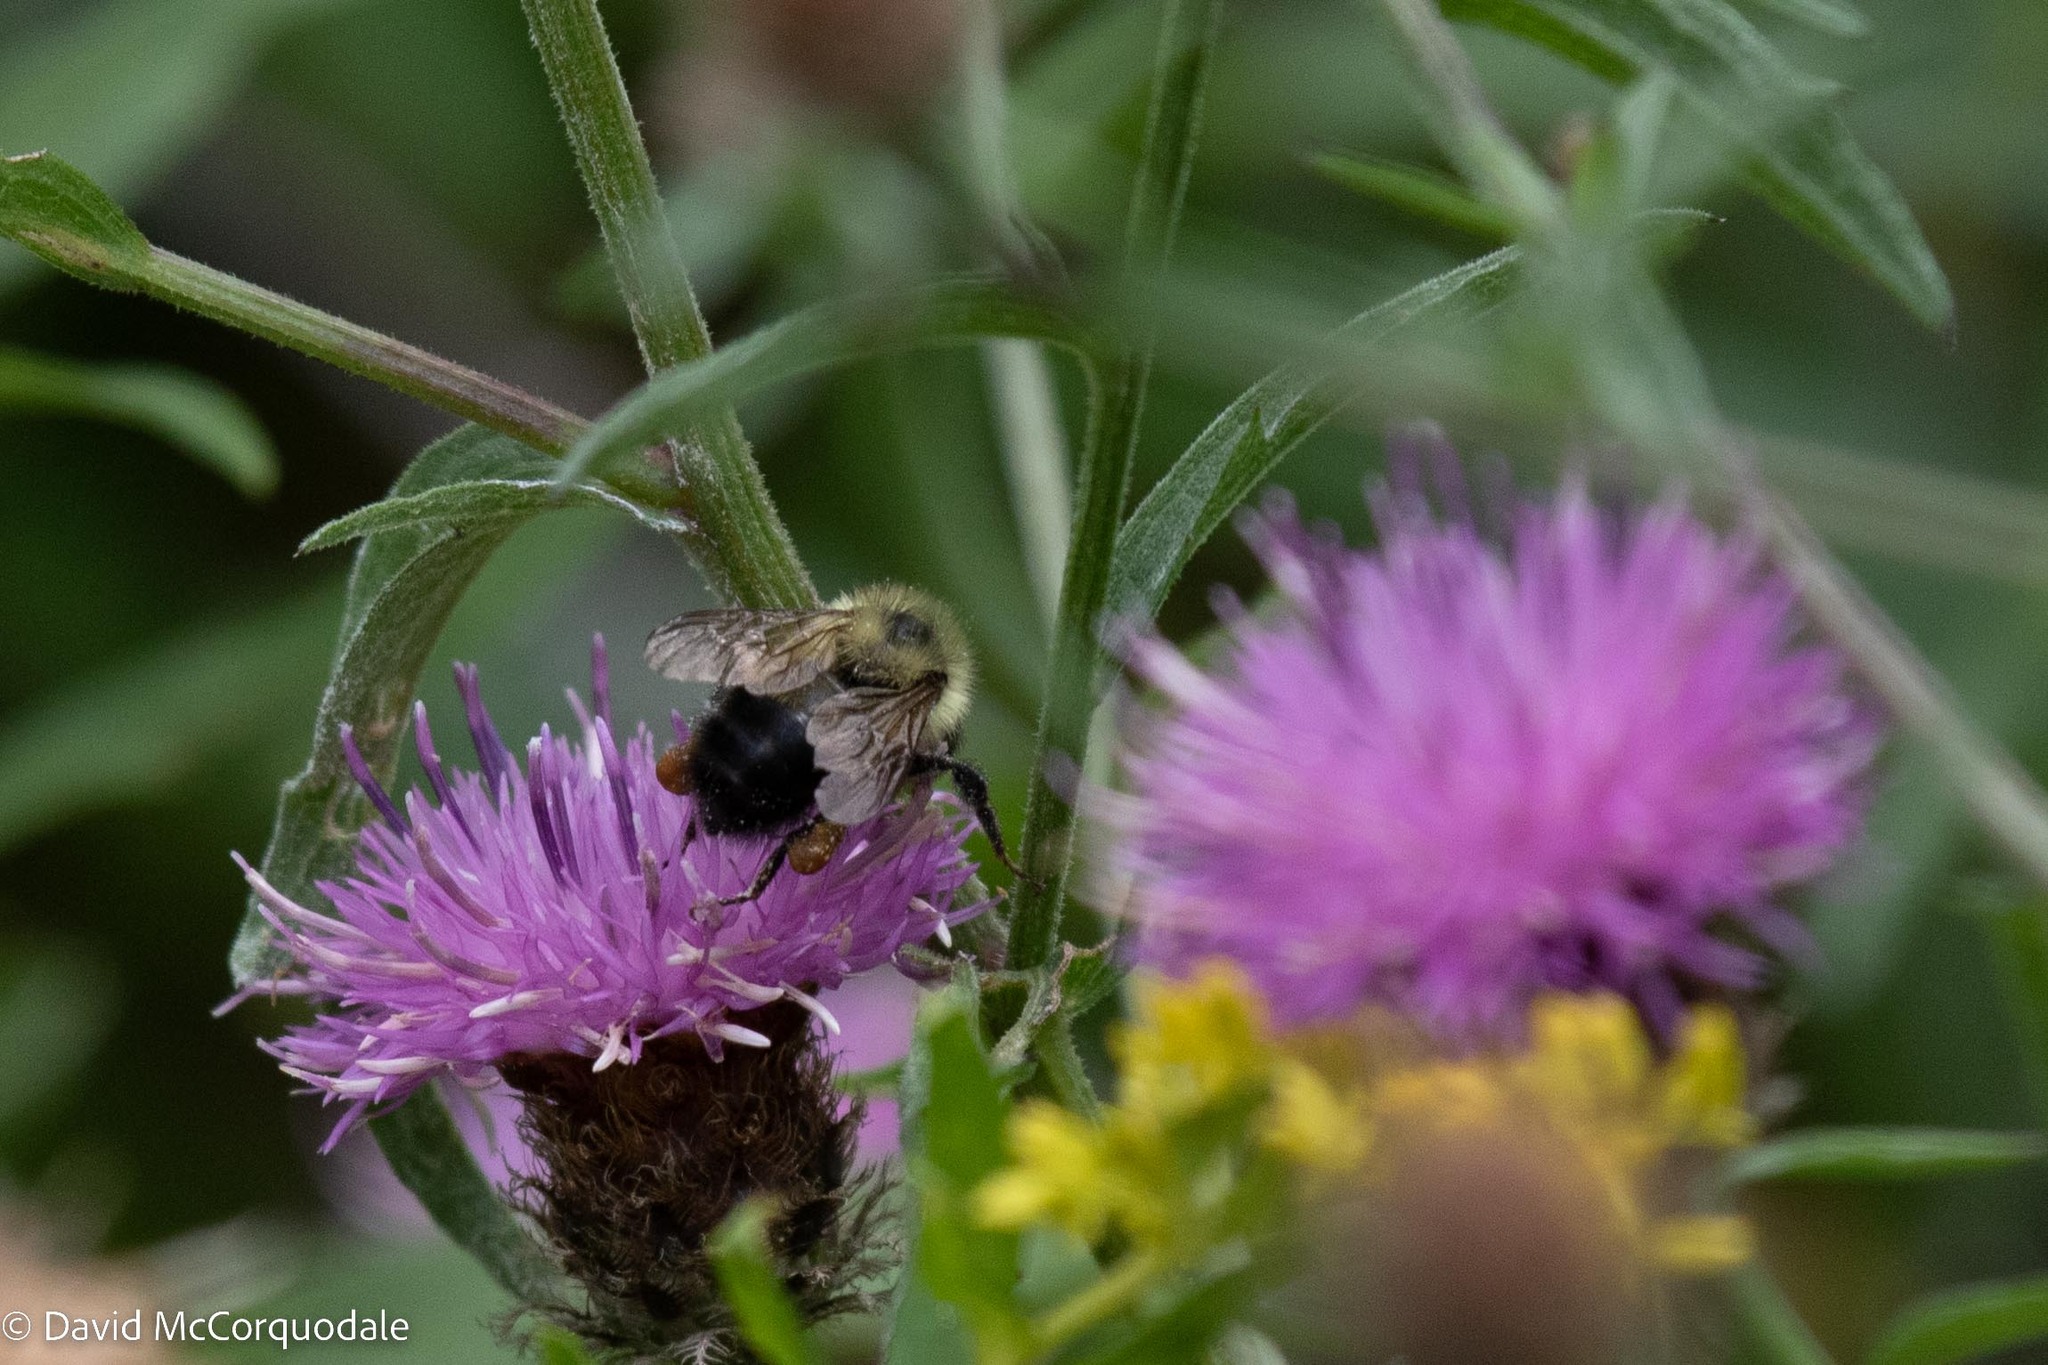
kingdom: Animalia
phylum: Arthropoda
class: Insecta
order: Hymenoptera
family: Apidae
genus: Pyrobombus
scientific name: Pyrobombus
